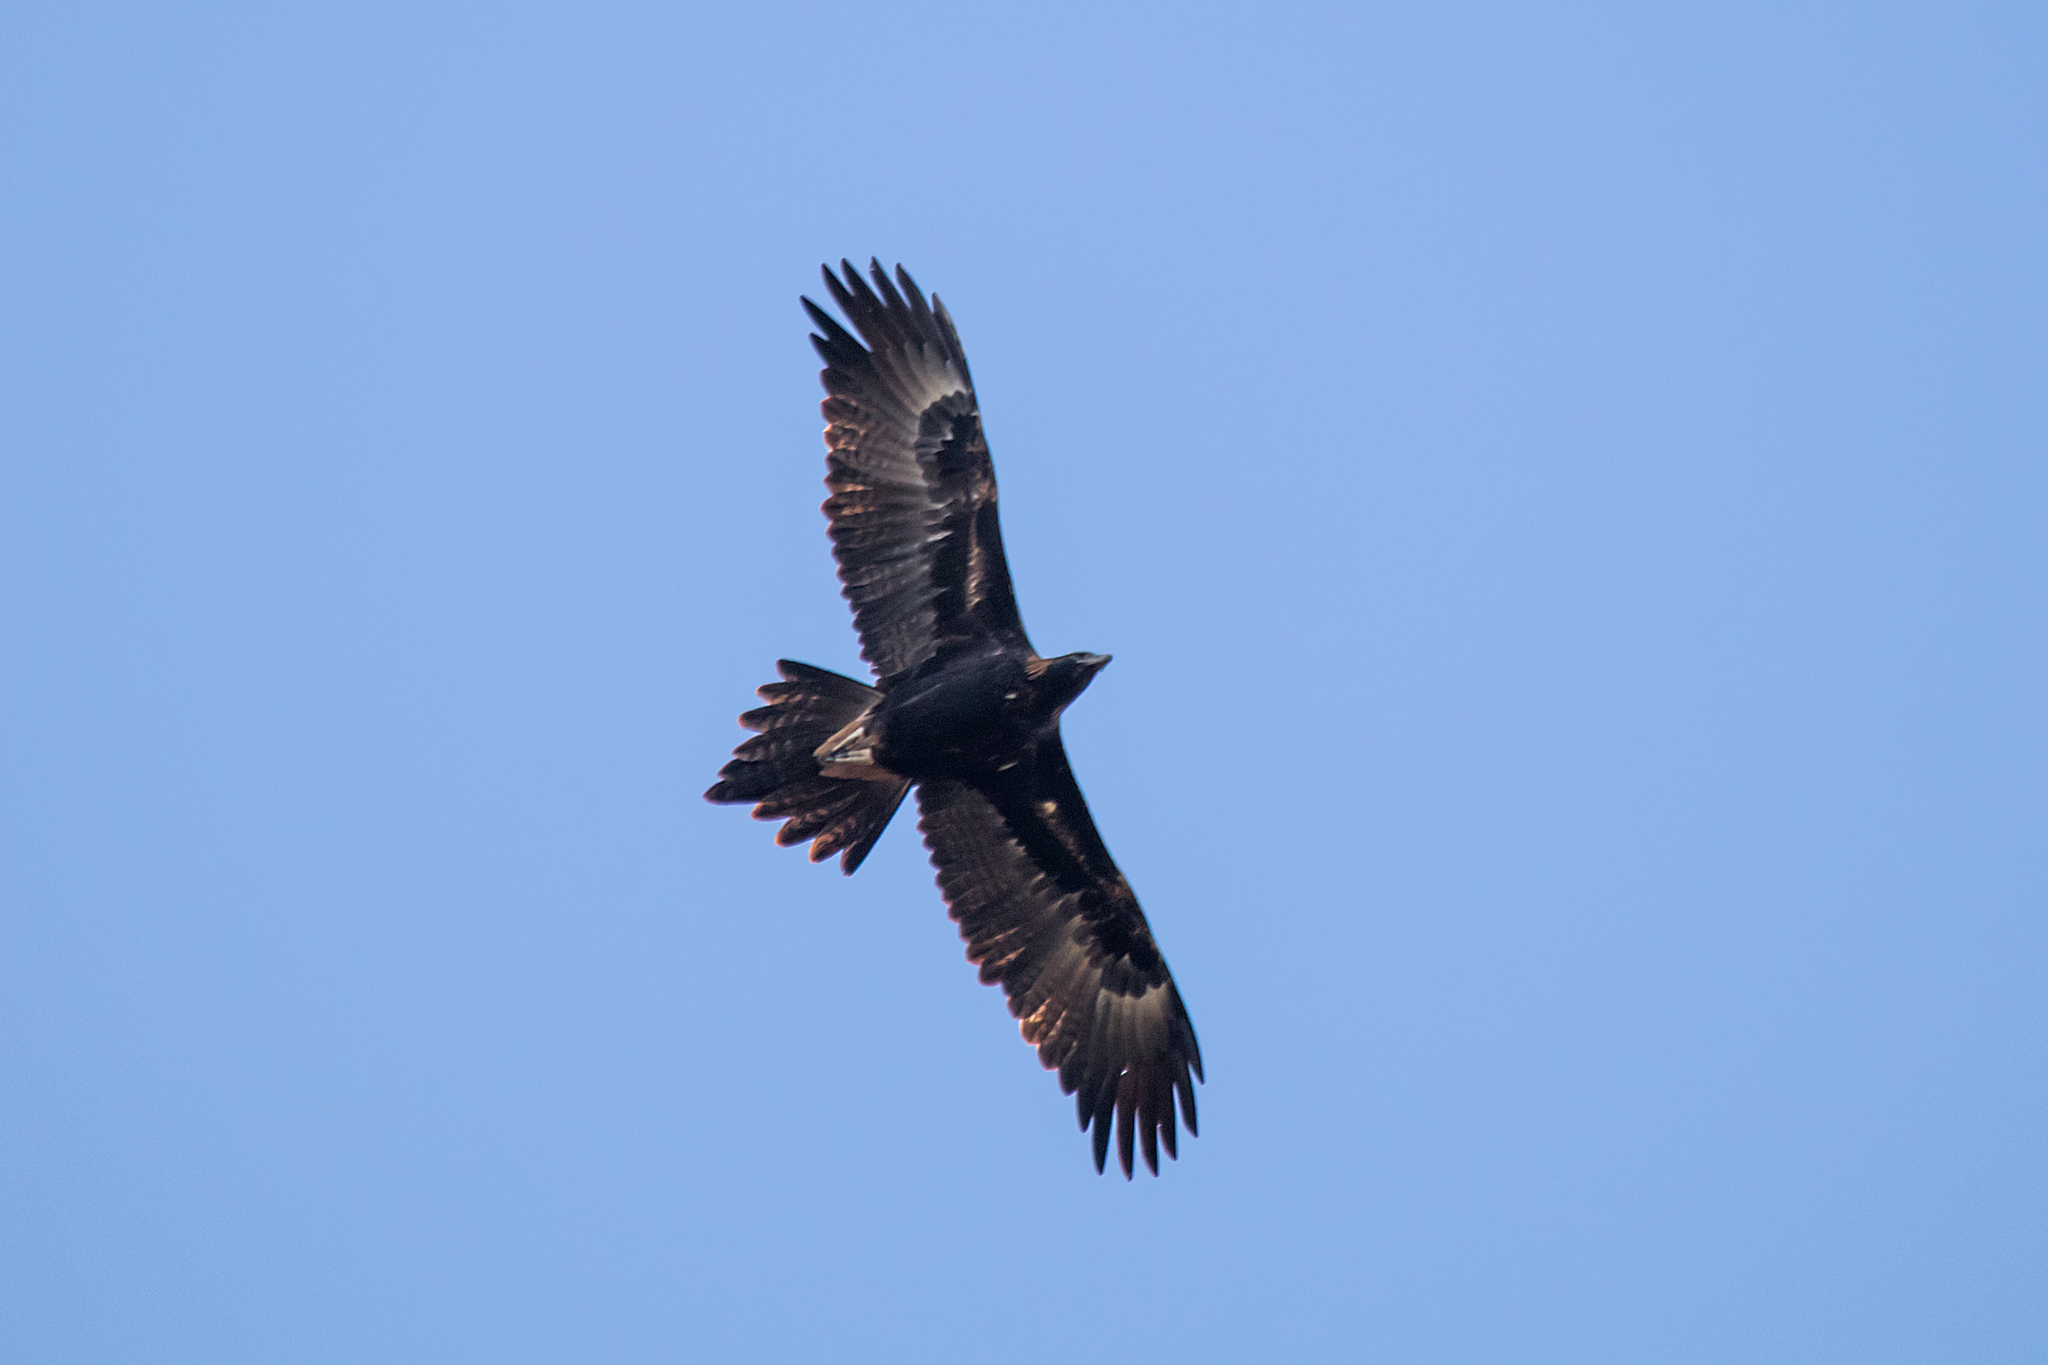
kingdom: Animalia
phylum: Chordata
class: Aves
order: Accipitriformes
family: Accipitridae
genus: Aquila
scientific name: Aquila audax
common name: Wedge-tailed eagle
